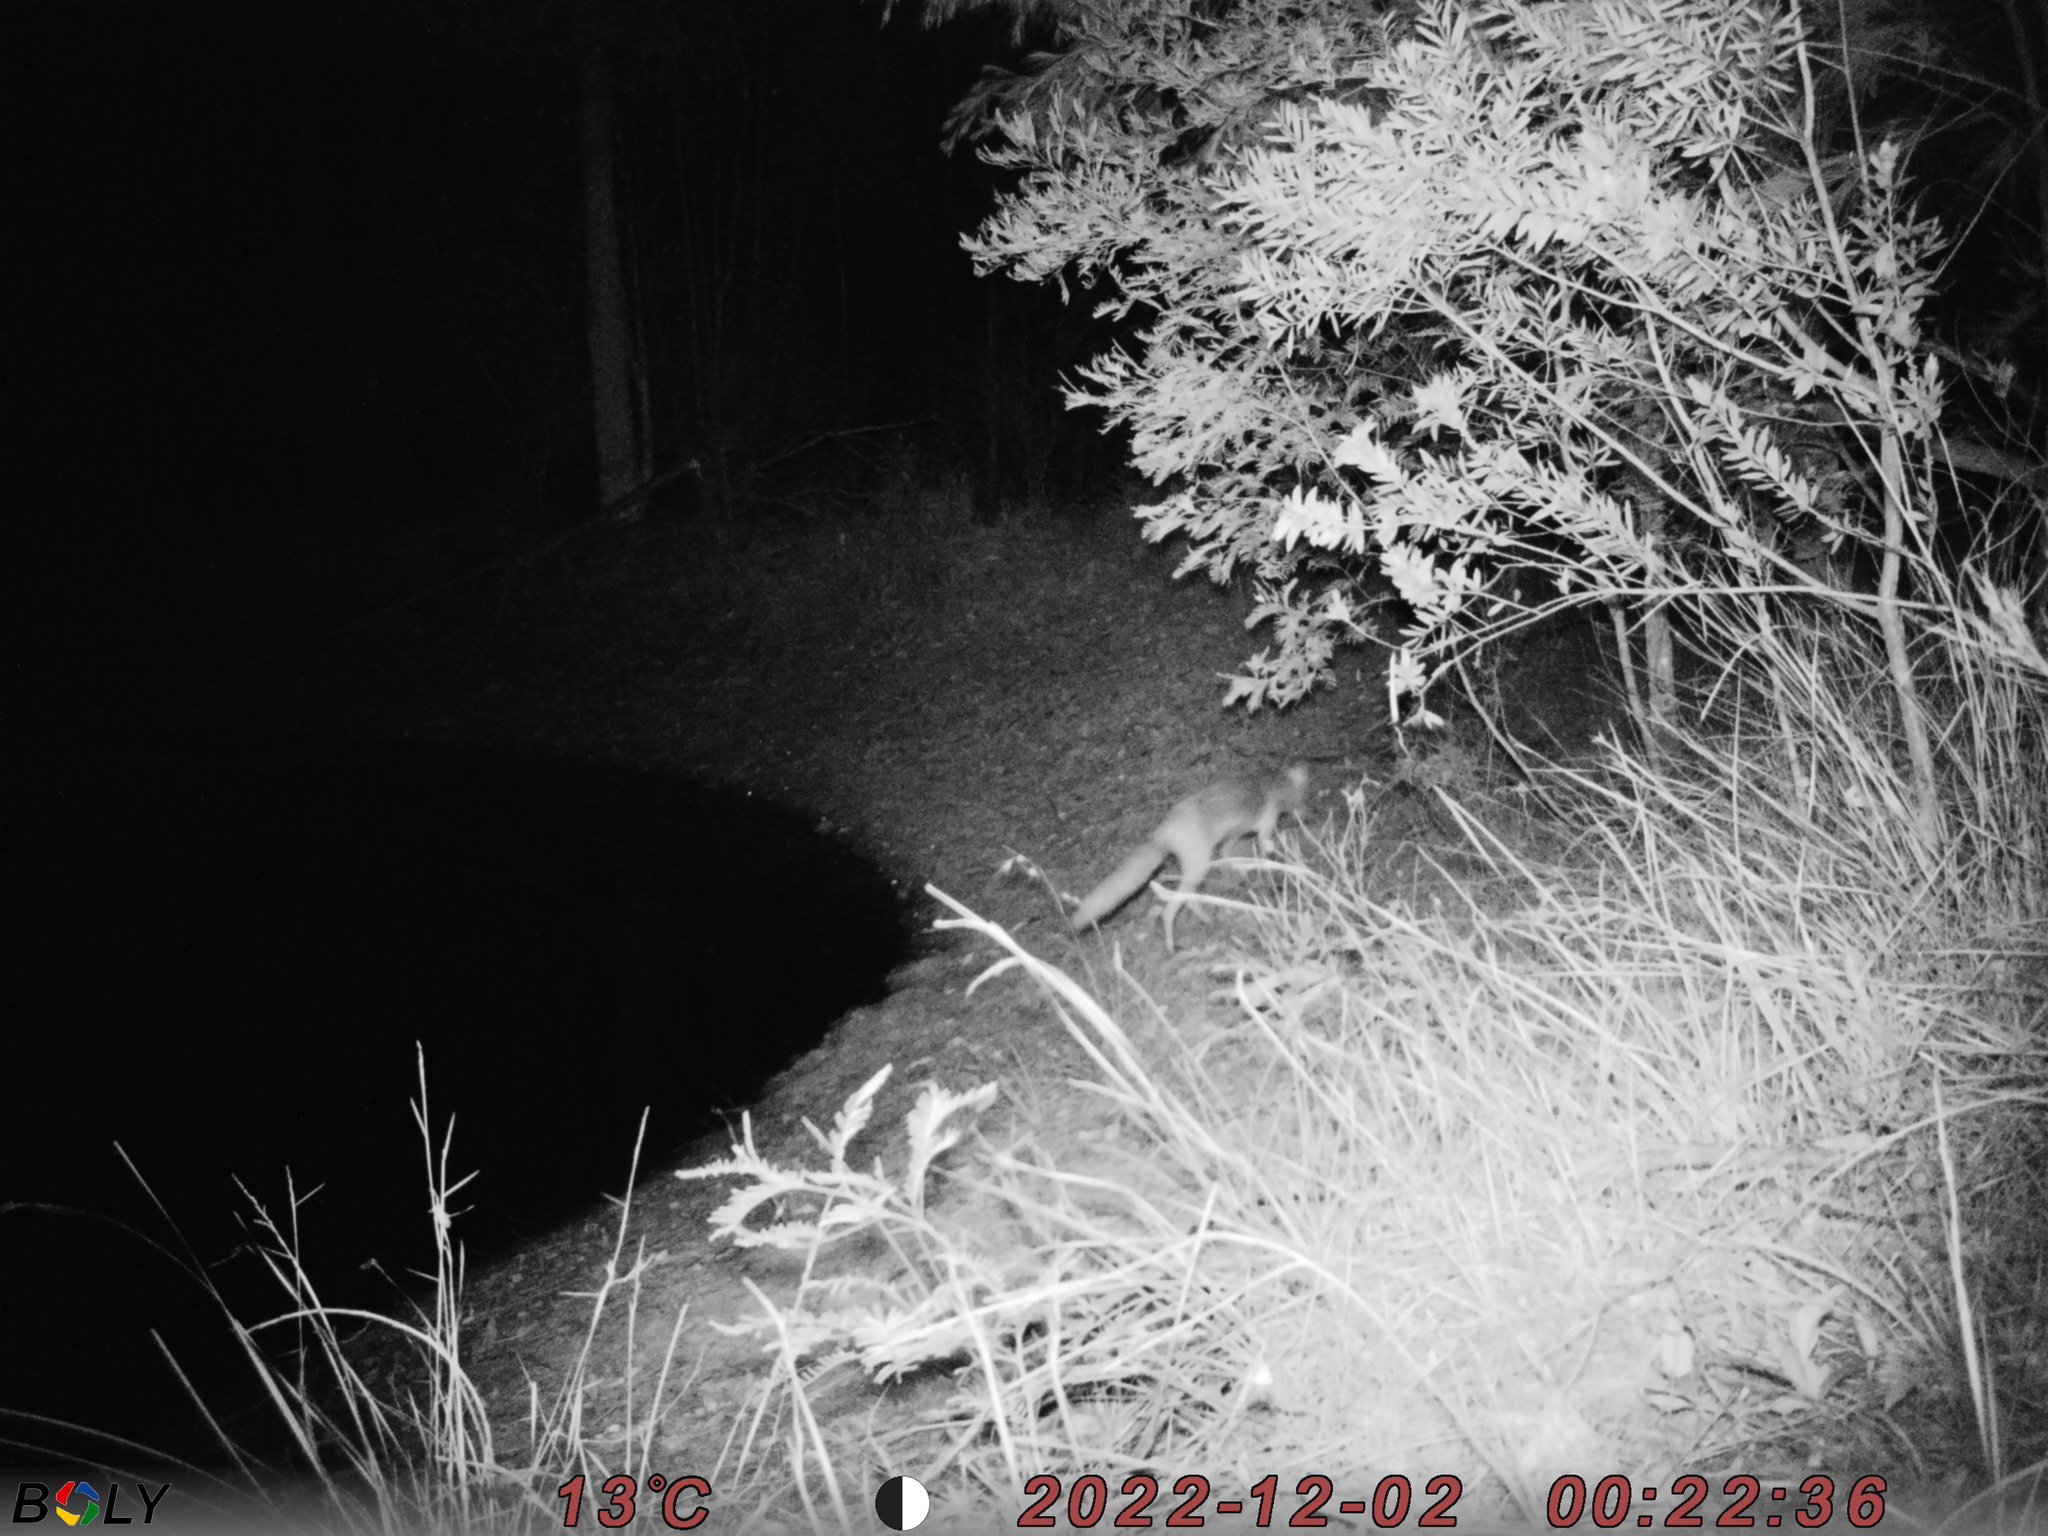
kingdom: Animalia
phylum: Chordata
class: Mammalia
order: Carnivora
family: Canidae
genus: Vulpes
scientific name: Vulpes vulpes
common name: Red fox
